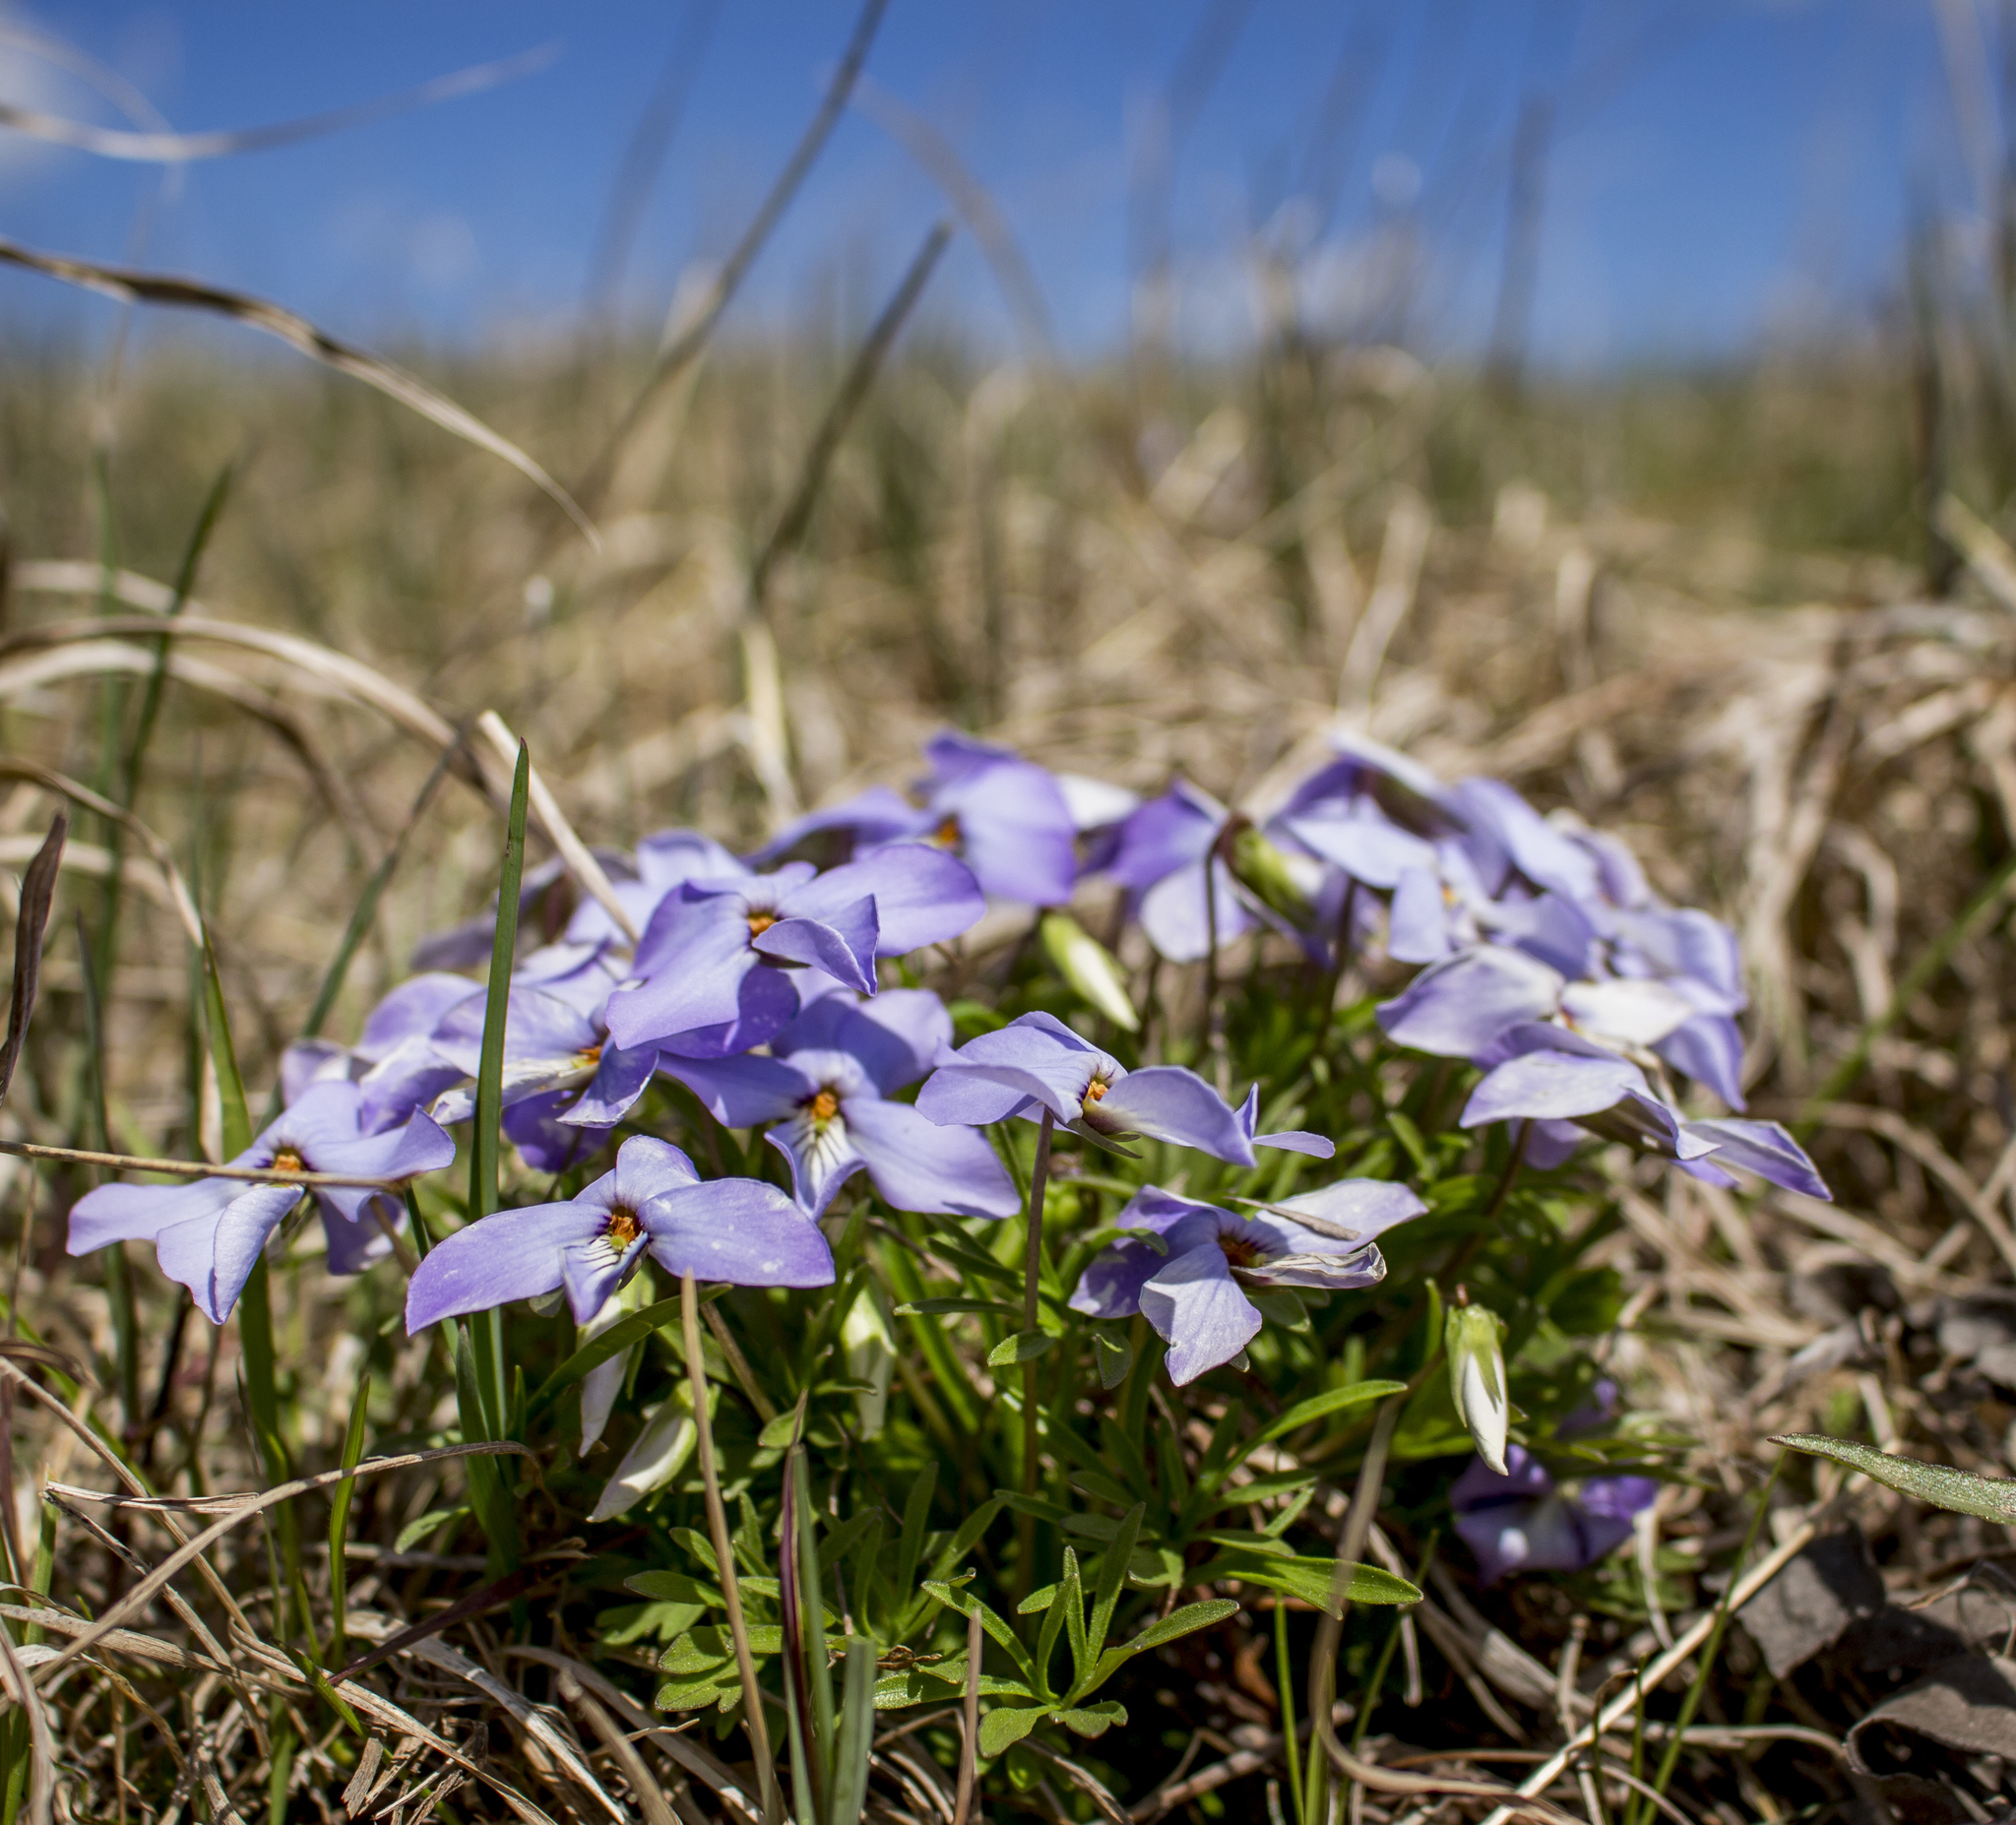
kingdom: Plantae
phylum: Tracheophyta
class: Magnoliopsida
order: Malpighiales
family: Violaceae
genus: Viola
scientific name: Viola pedata
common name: Pansy violet
